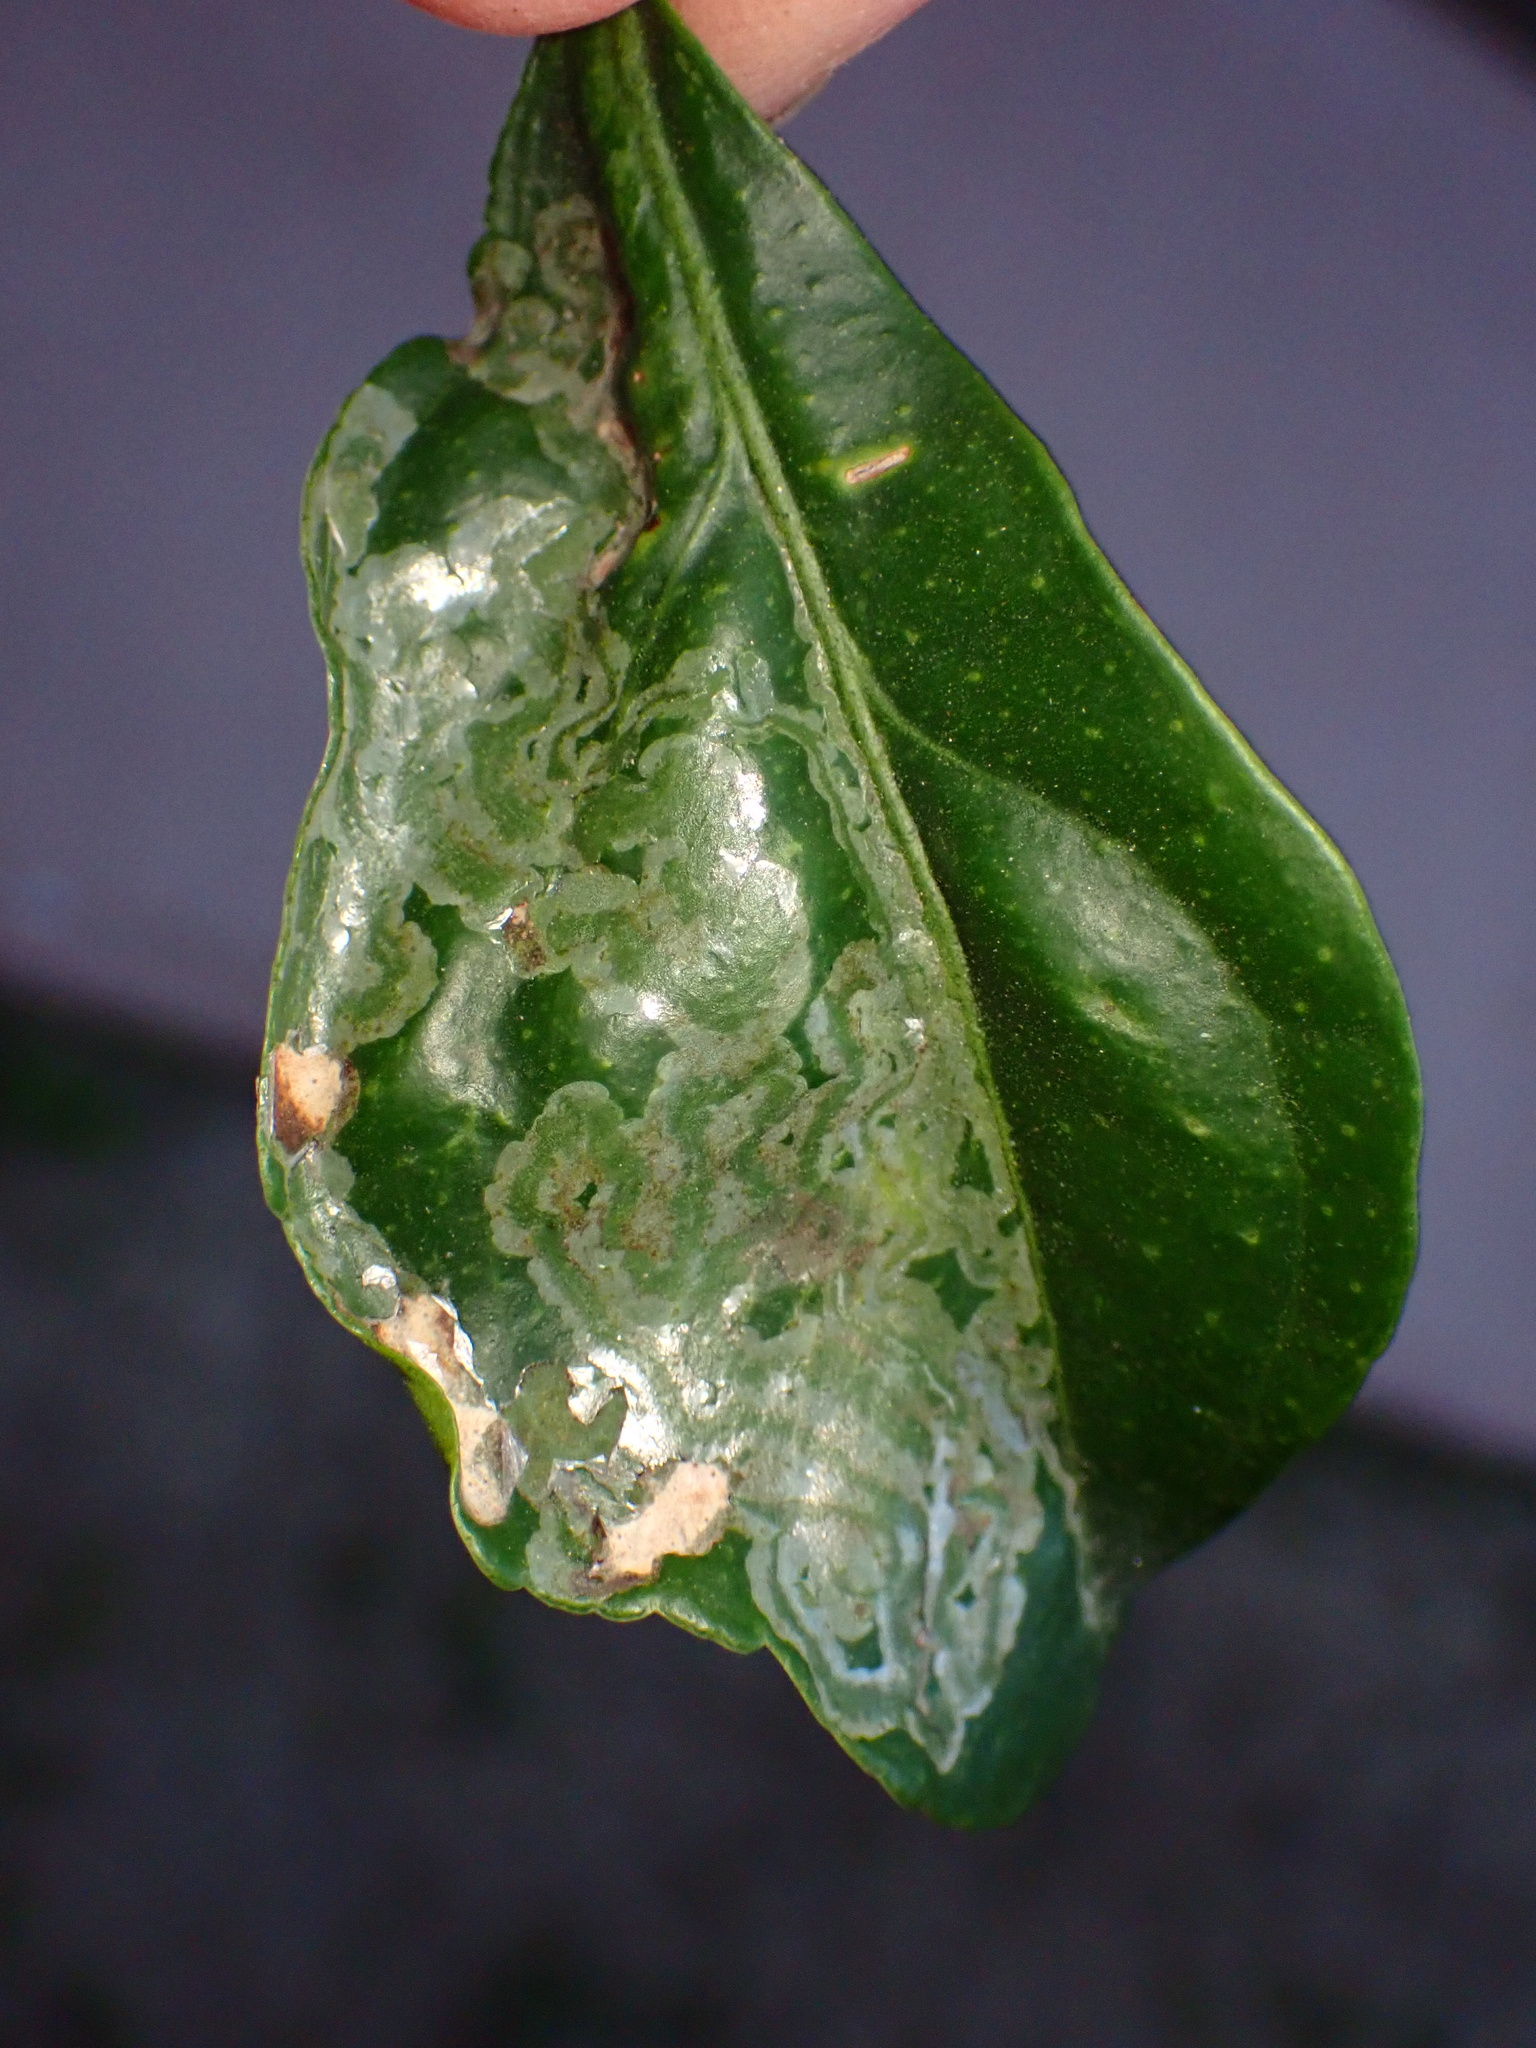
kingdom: Animalia
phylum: Arthropoda
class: Insecta
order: Lepidoptera
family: Gracillariidae
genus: Phyllocnistis
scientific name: Phyllocnistis citrella
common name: Citrus leafminer
